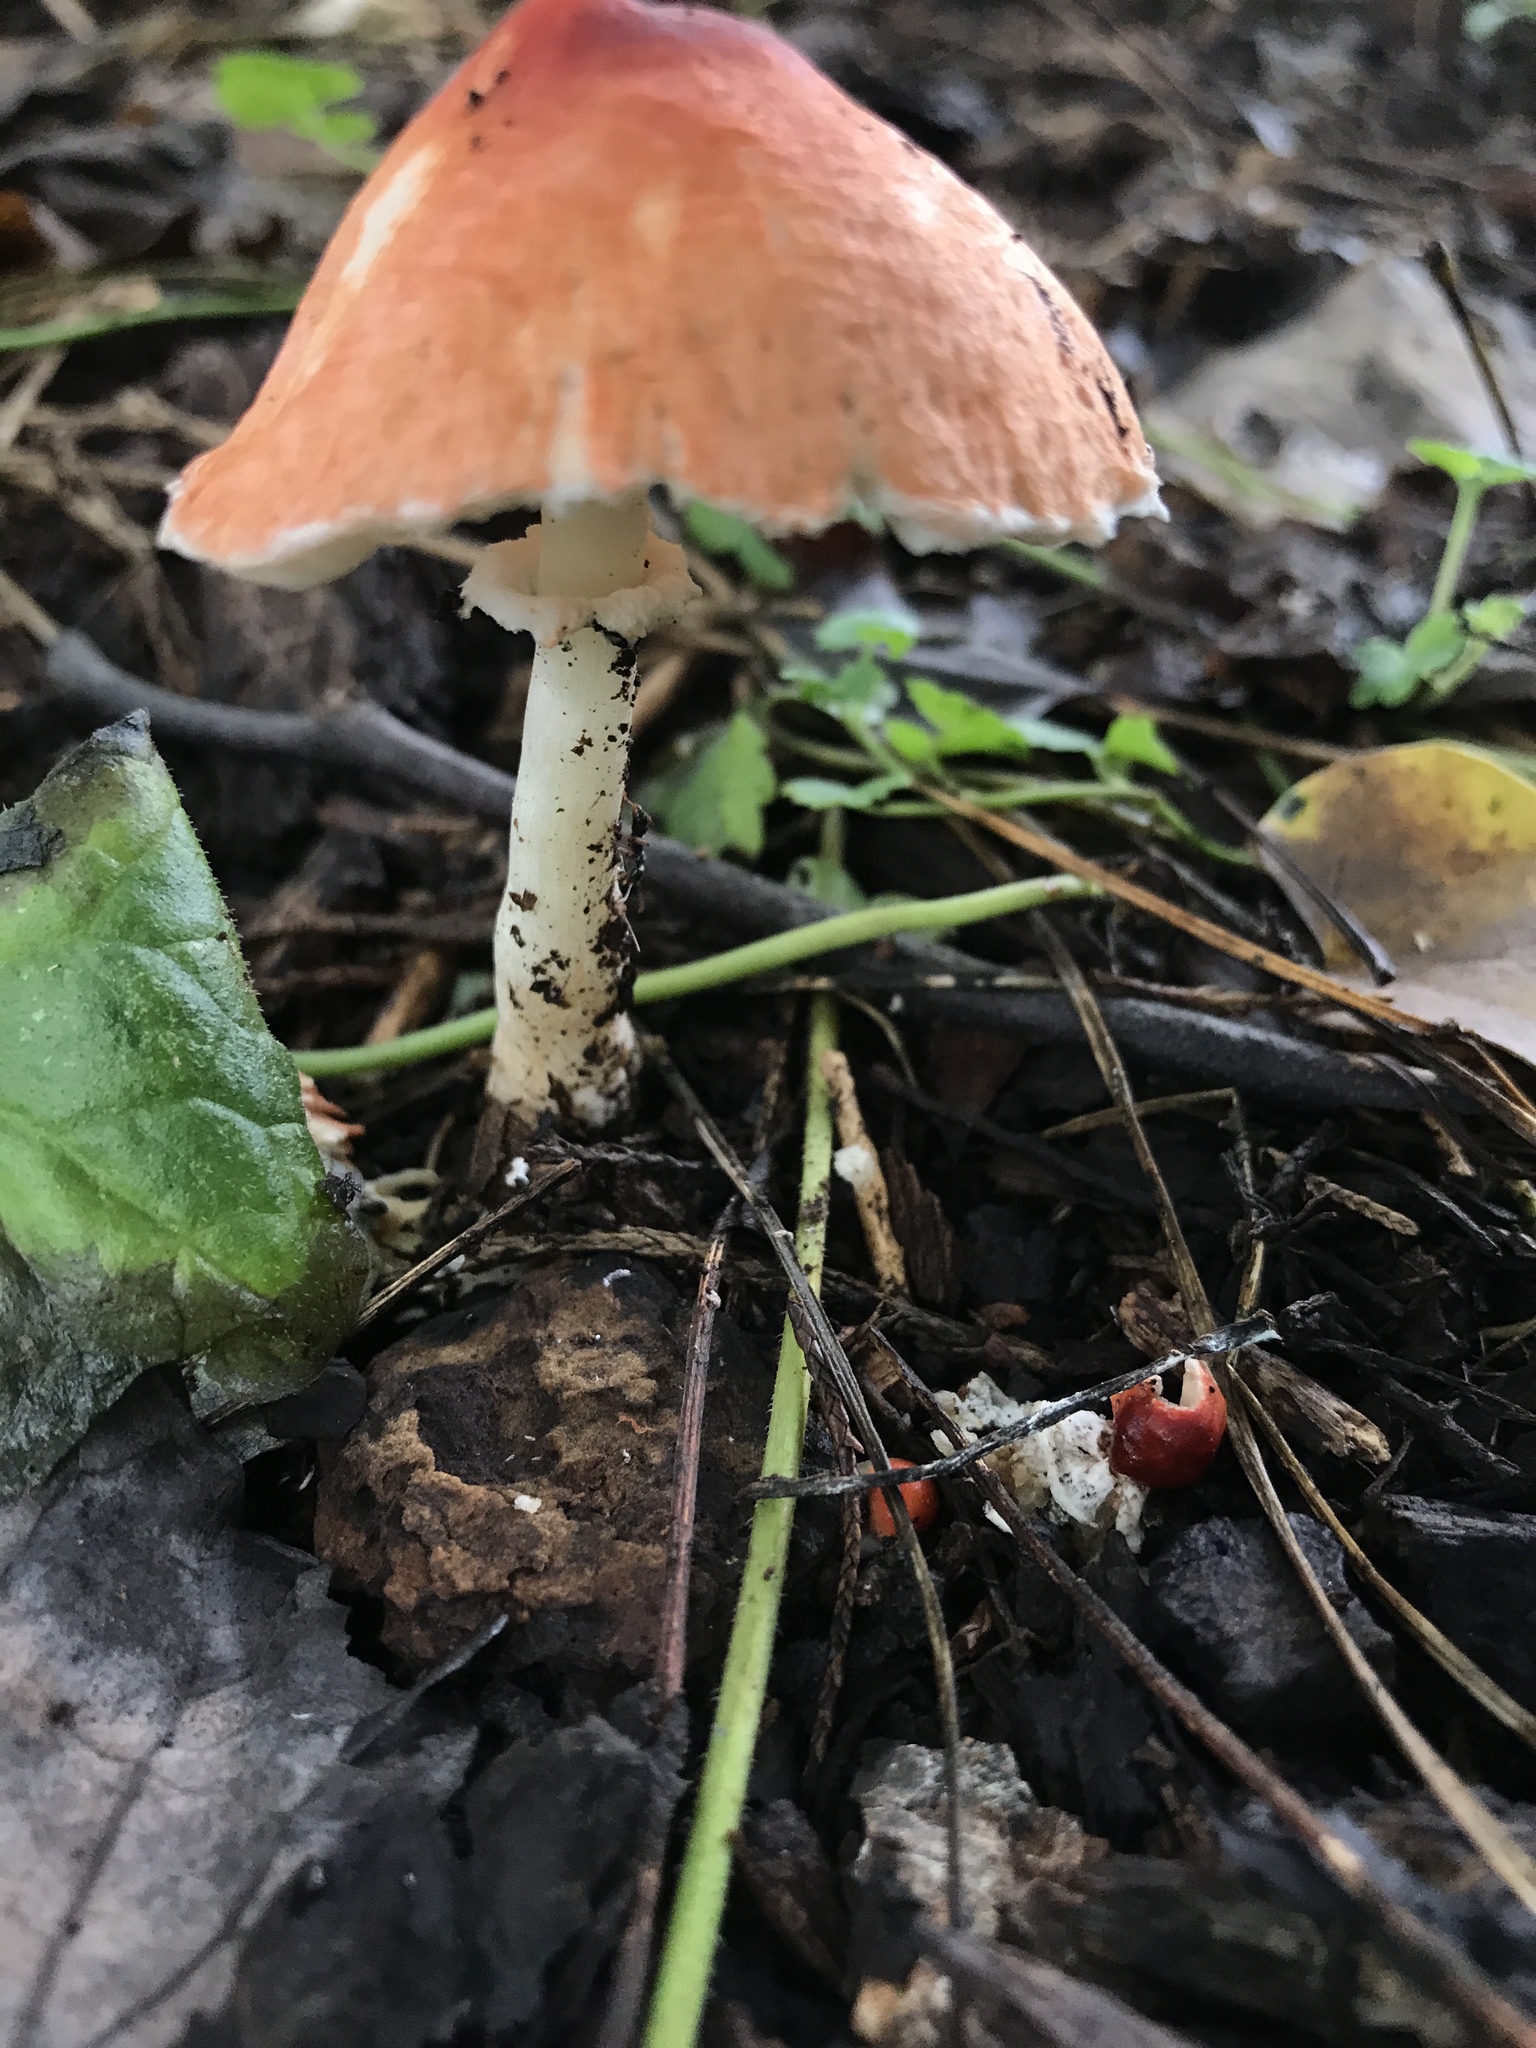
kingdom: Fungi
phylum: Basidiomycota
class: Agaricomycetes
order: Agaricales
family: Agaricaceae
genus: Leucoagaricus
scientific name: Leucoagaricus rubrotinctus
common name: Ruby dapperling
